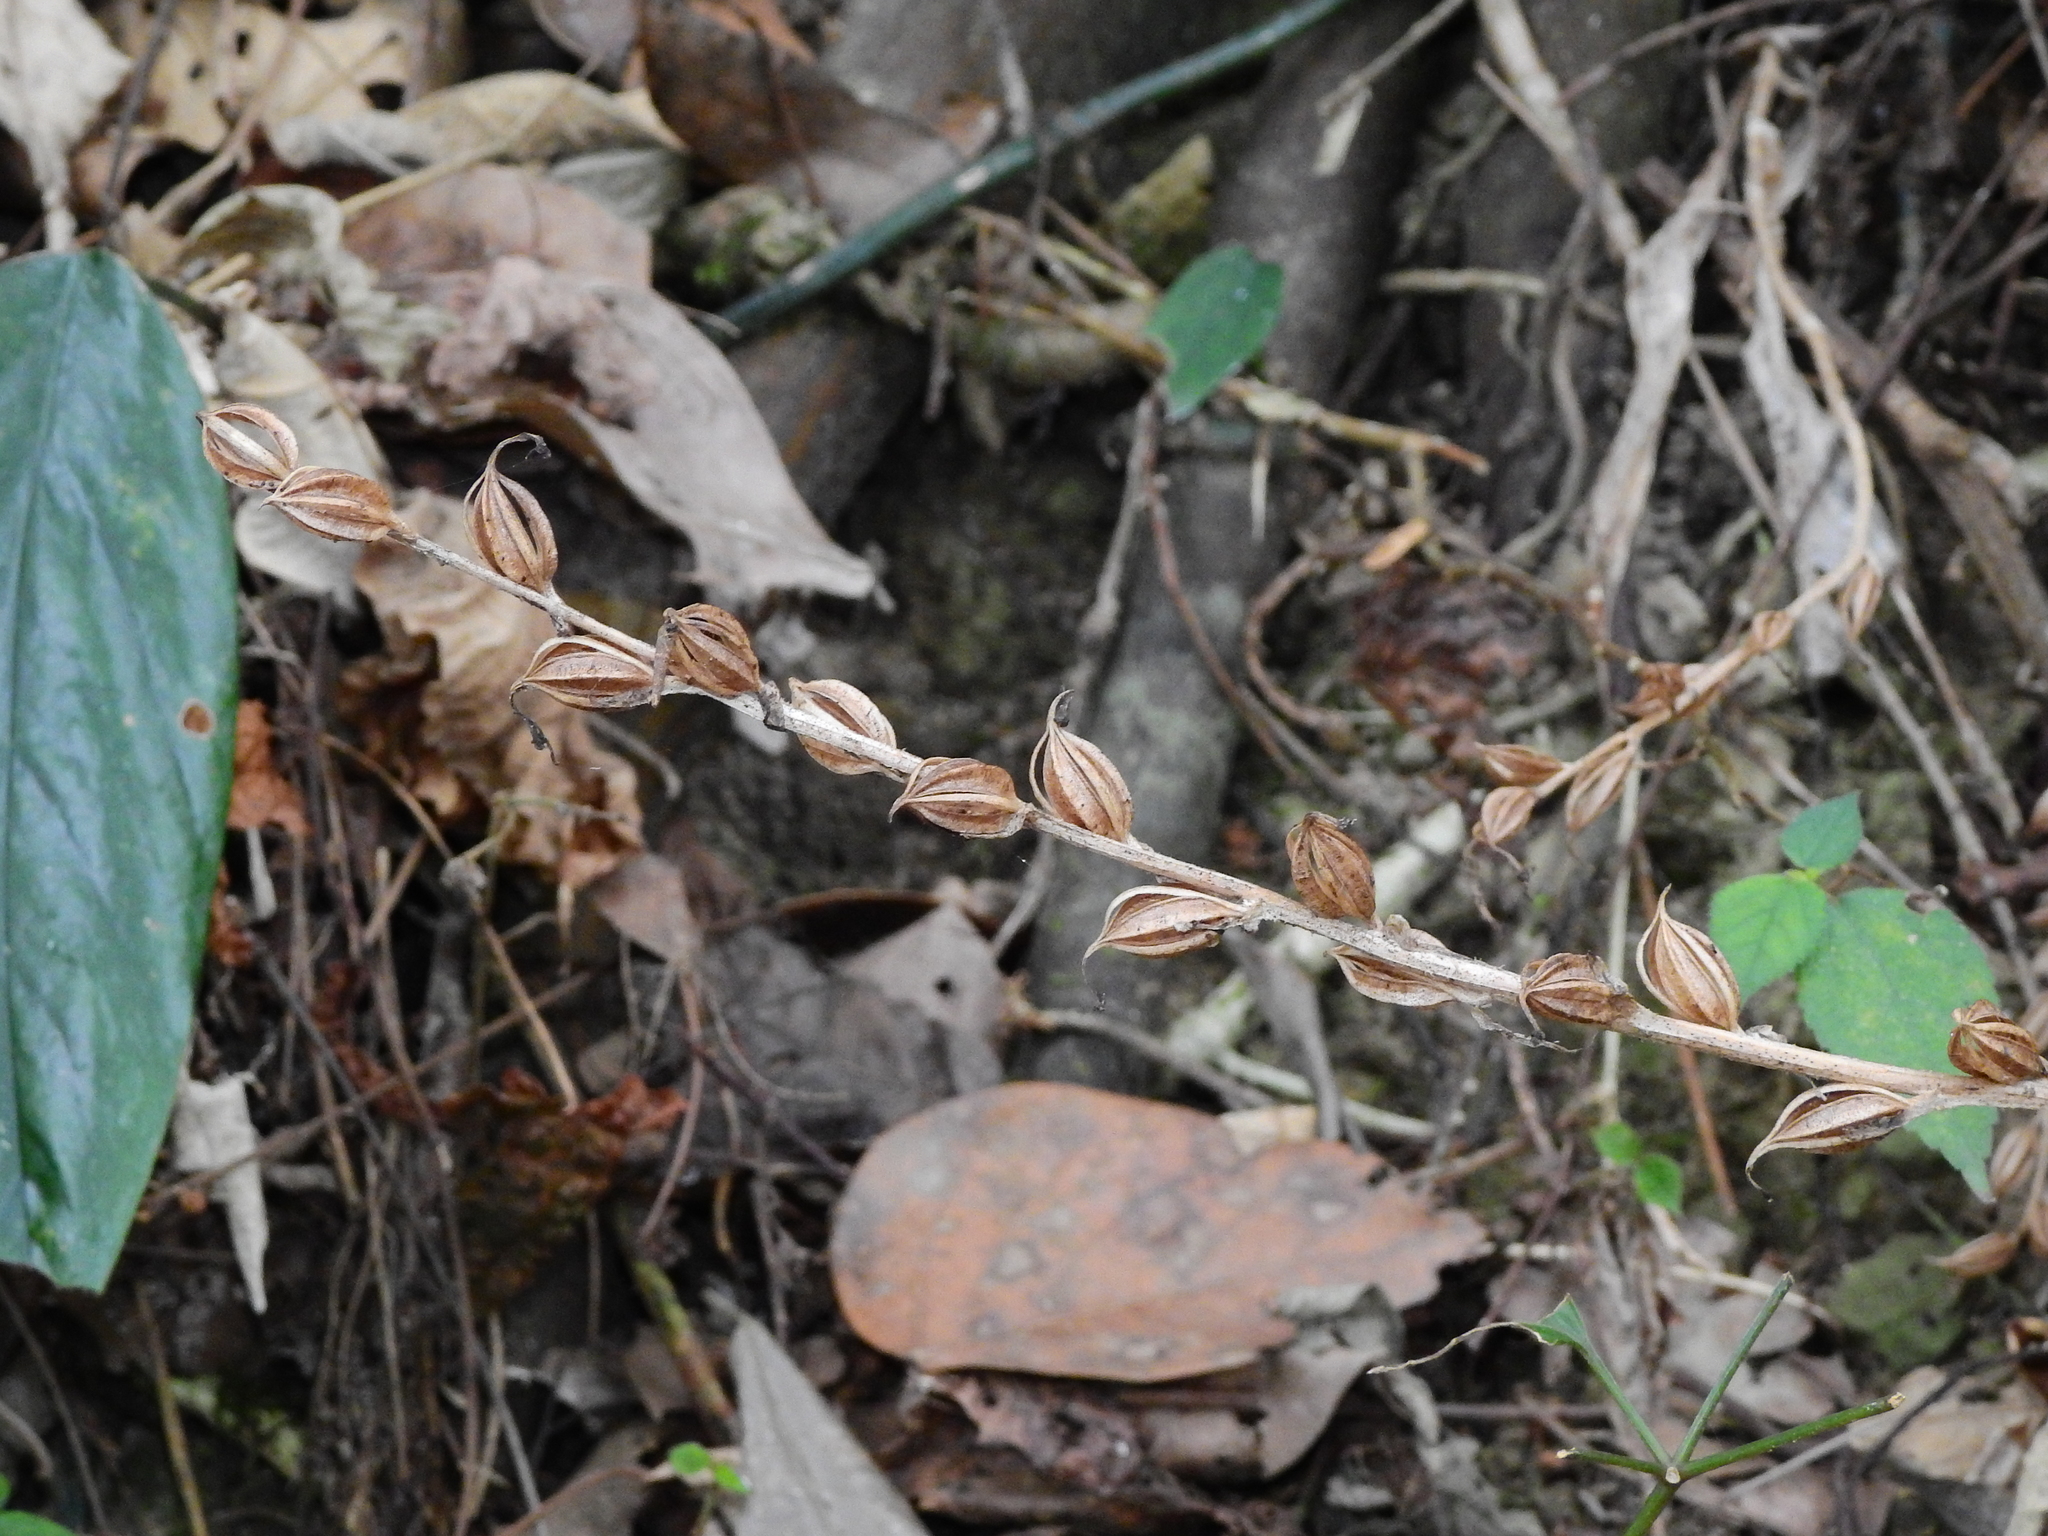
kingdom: Plantae
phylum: Tracheophyta
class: Liliopsida
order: Asparagales
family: Orchidaceae
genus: Habenaria
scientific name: Habenaria ciliolaris
